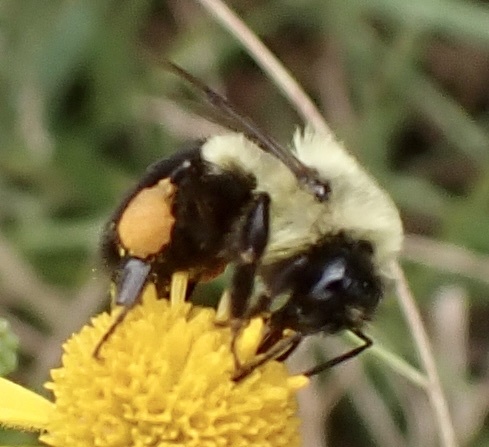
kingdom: Animalia
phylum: Arthropoda
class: Insecta
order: Hymenoptera
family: Apidae
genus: Bombus
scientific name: Bombus impatiens
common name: Common eastern bumble bee
